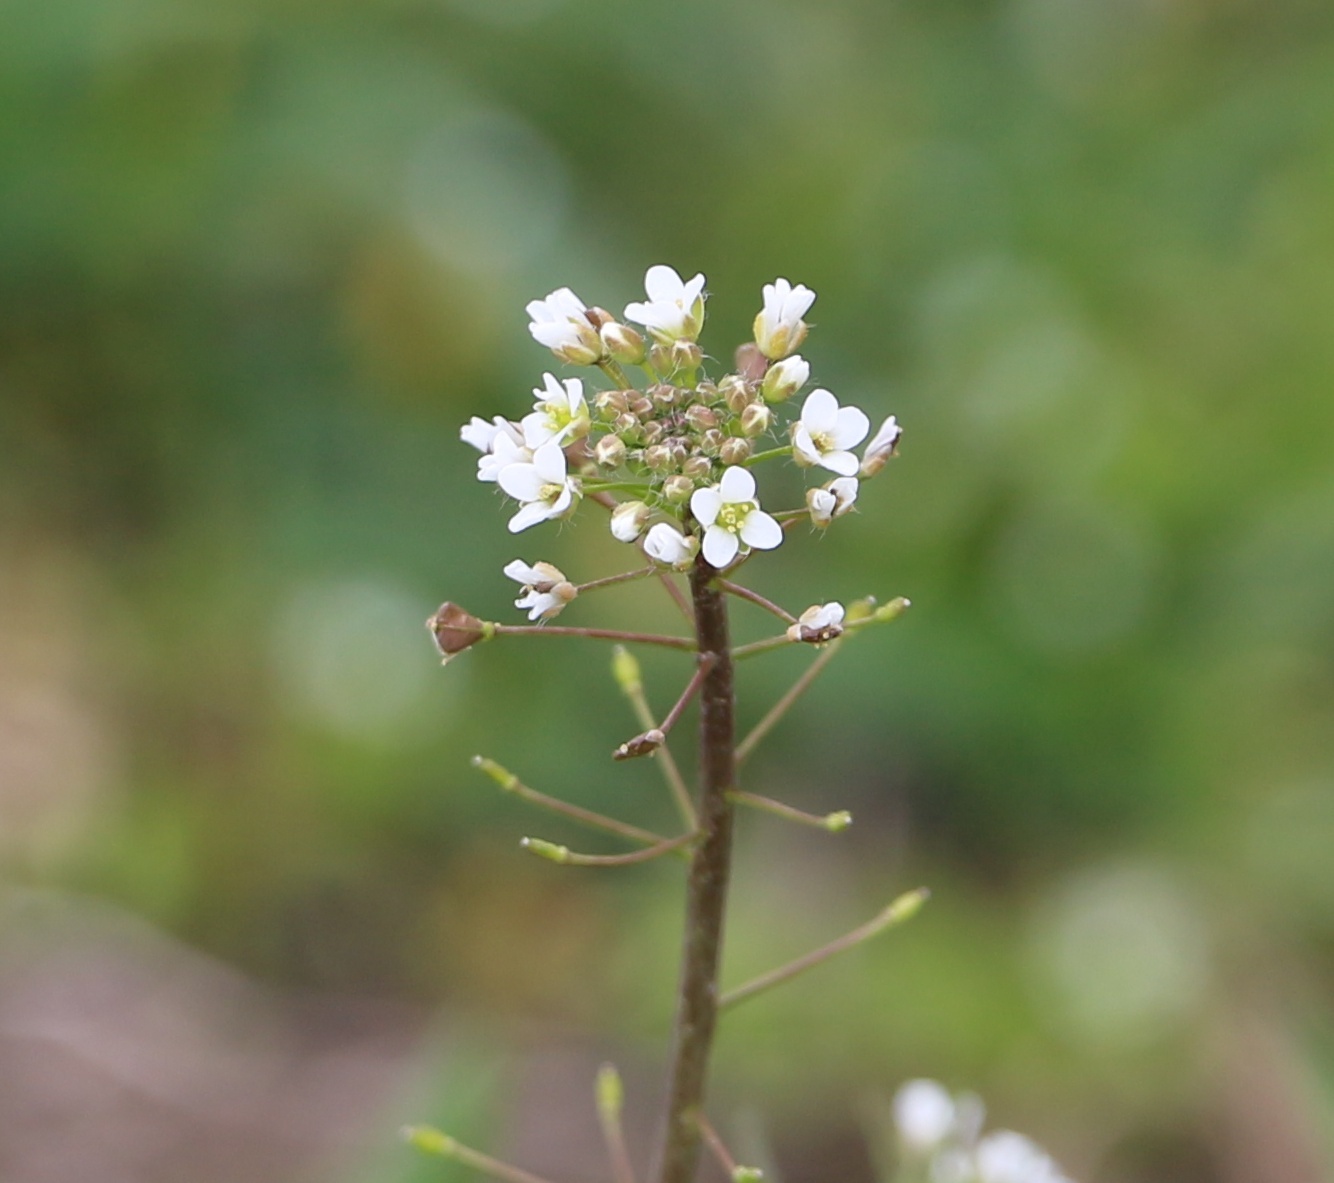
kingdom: Plantae
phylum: Tracheophyta
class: Magnoliopsida
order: Brassicales
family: Brassicaceae
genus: Capsella
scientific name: Capsella bursa-pastoris
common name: Shepherd's purse
